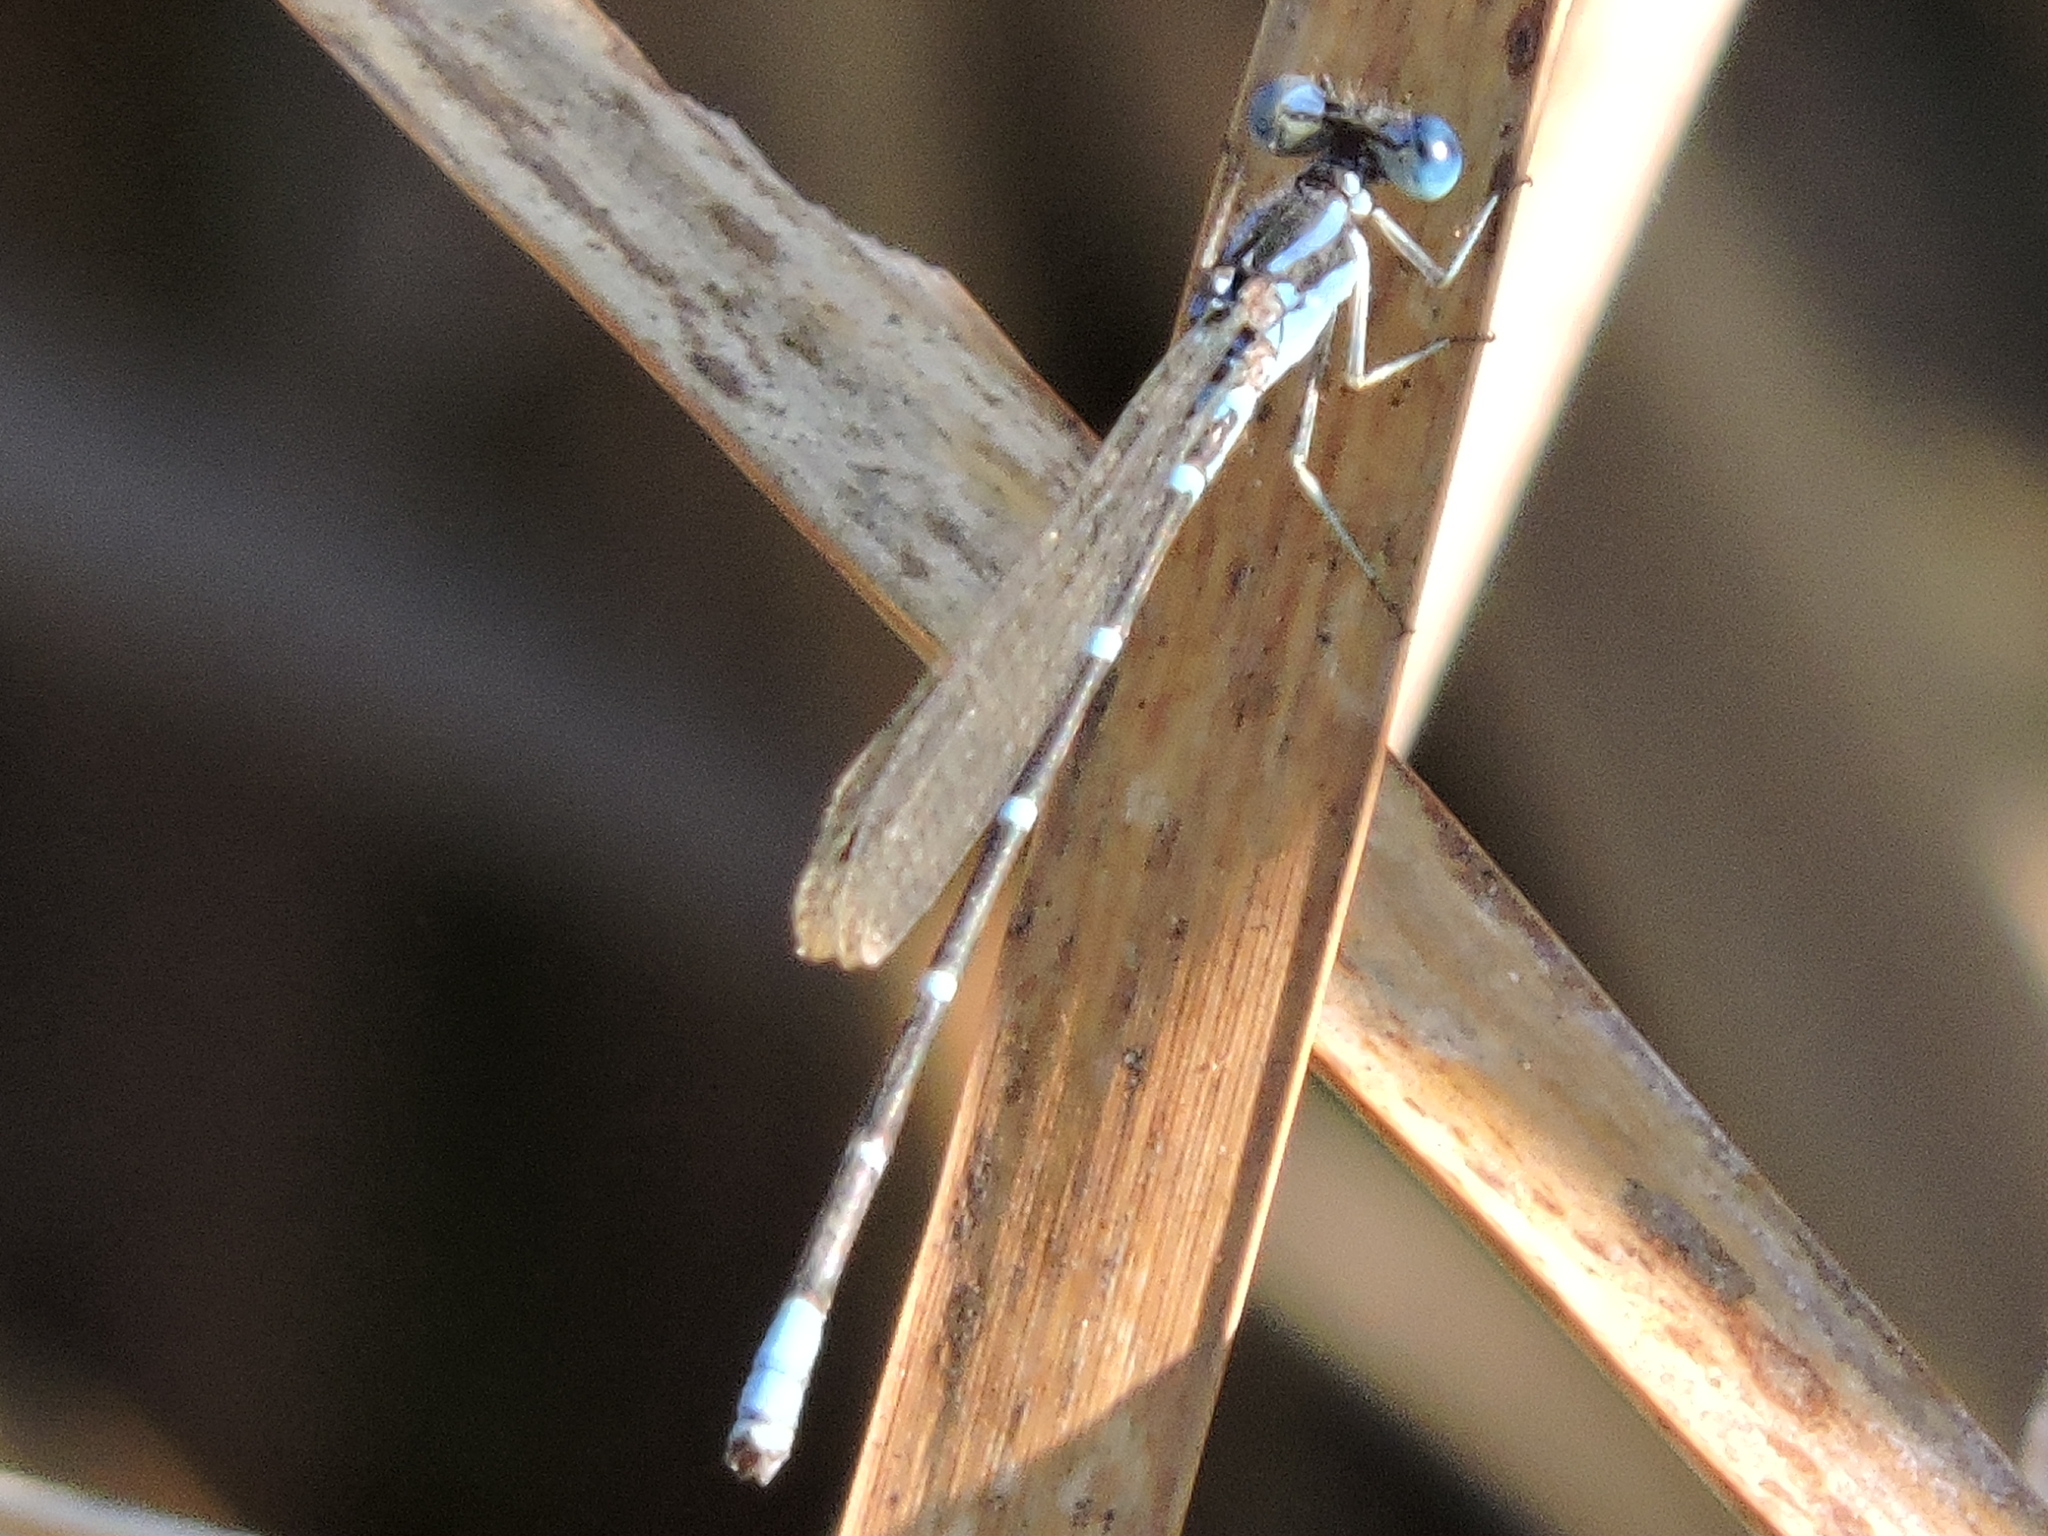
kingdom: Animalia
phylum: Arthropoda
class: Insecta
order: Odonata
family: Coenagrionidae
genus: Argia
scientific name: Argia sedula
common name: Blue-ringed dancer
